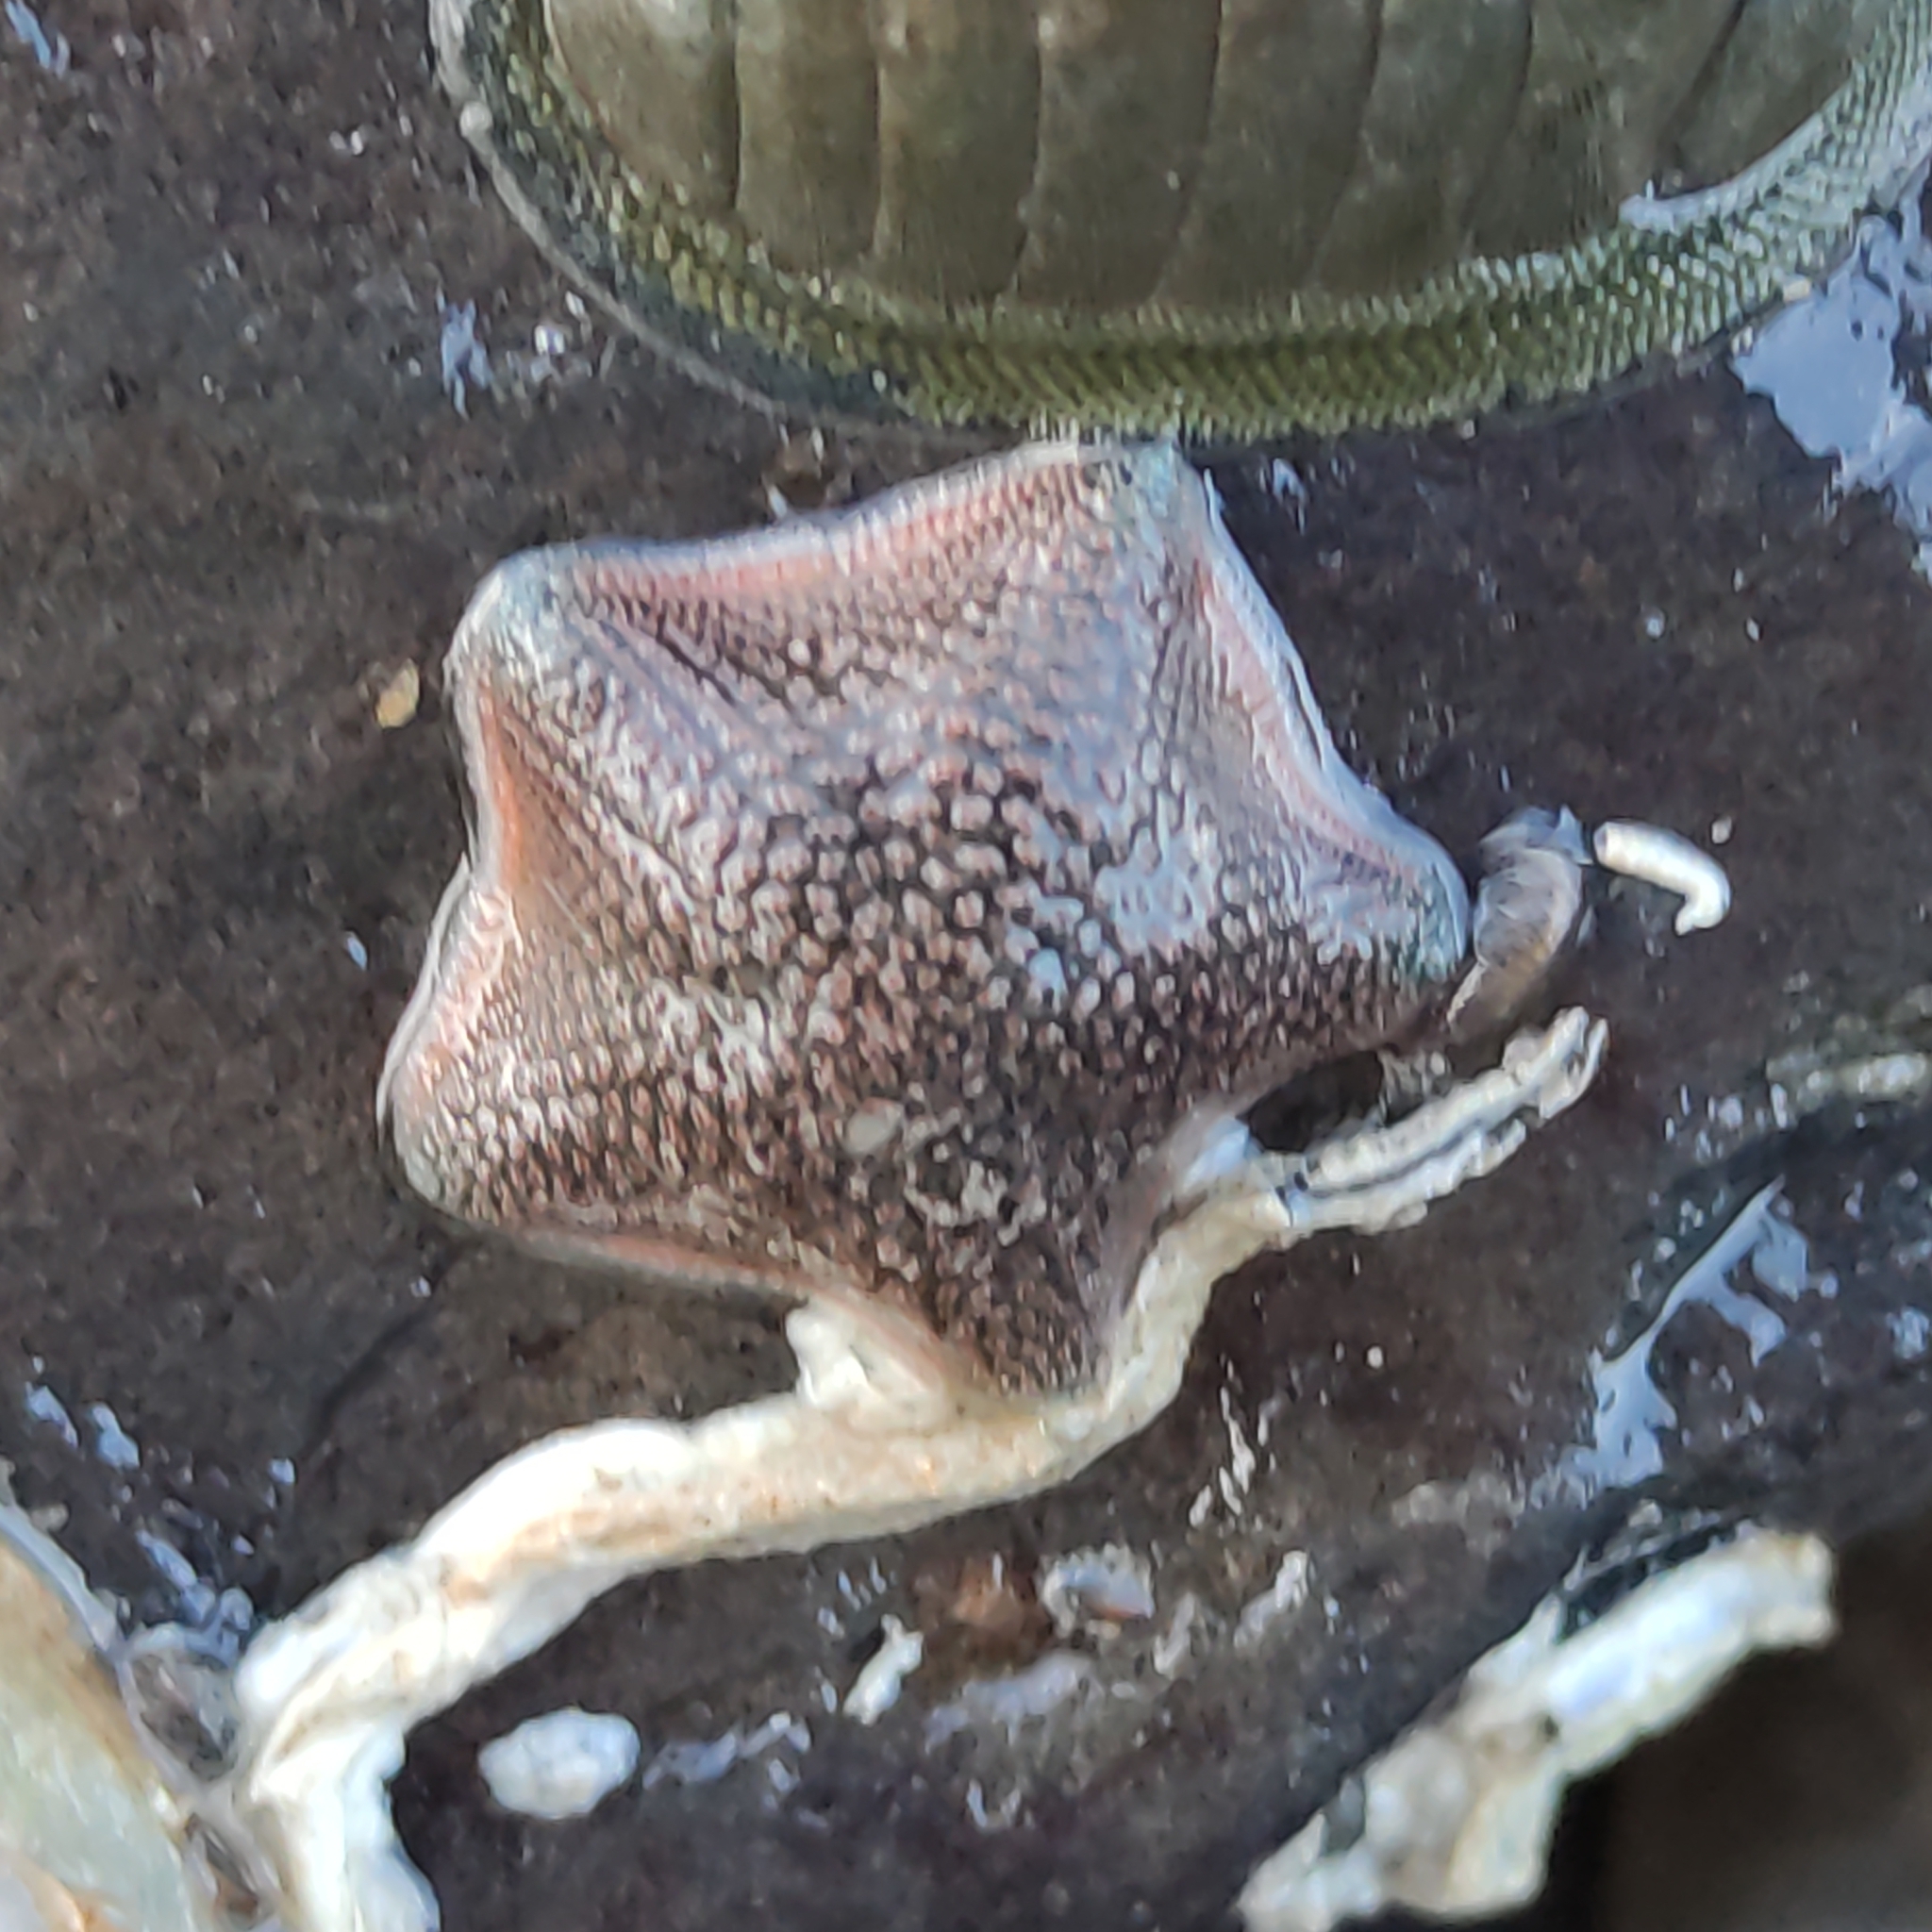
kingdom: Animalia
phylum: Echinodermata
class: Asteroidea
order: Valvatida
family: Asterinidae
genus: Patiriella
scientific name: Patiriella regularis
